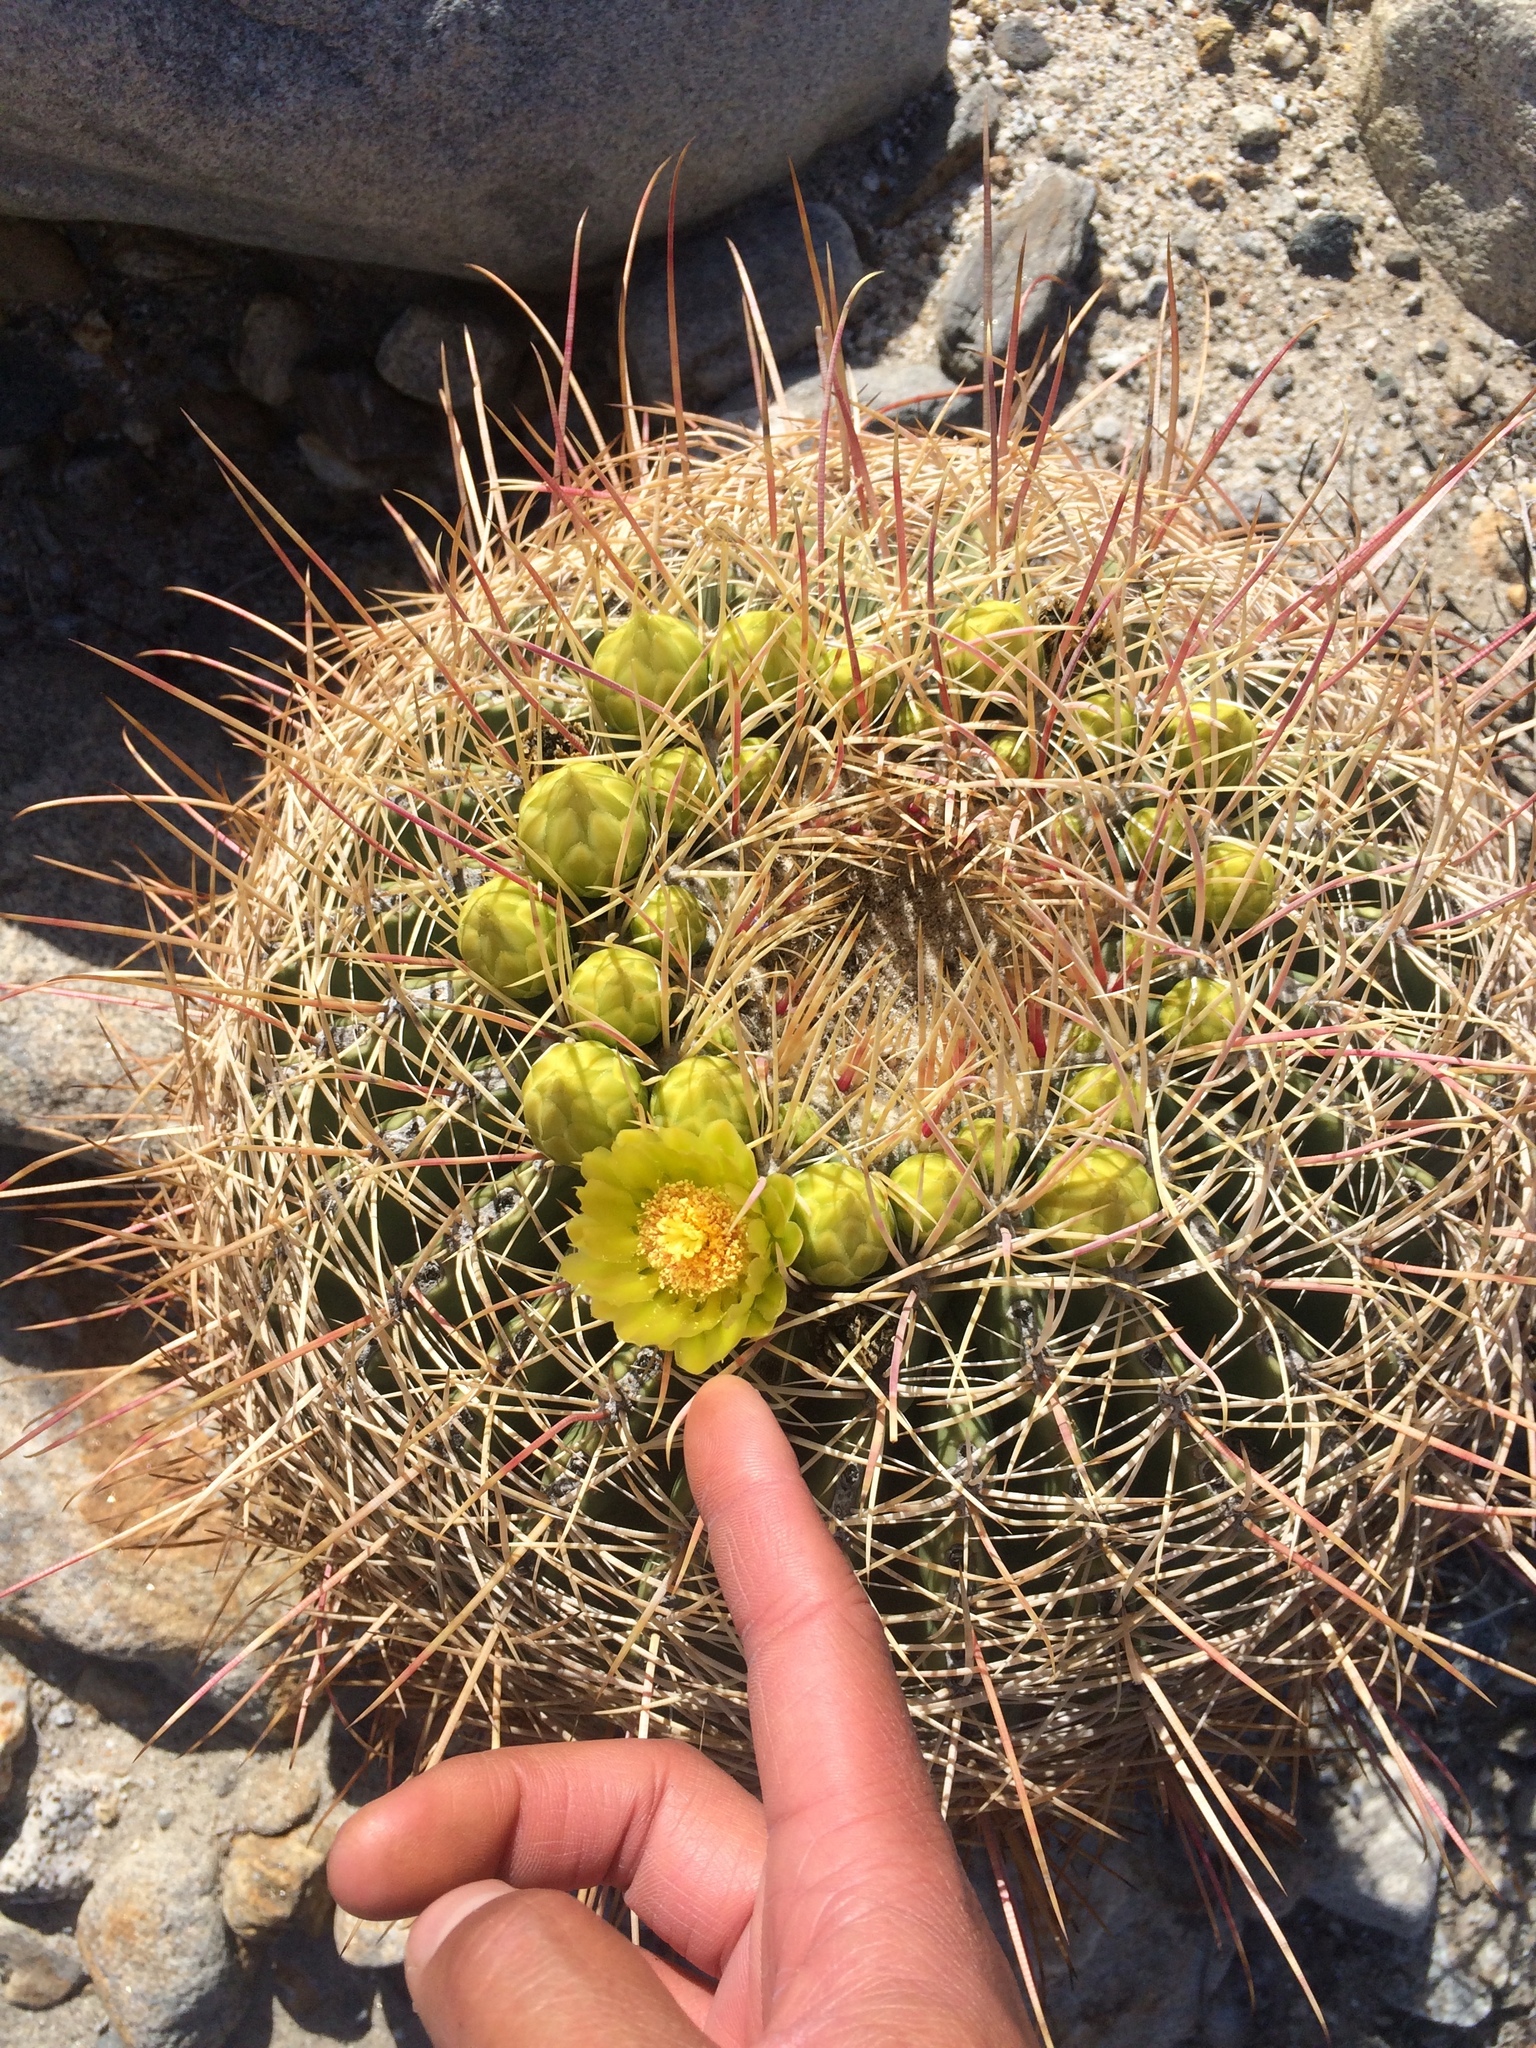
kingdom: Plantae
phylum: Tracheophyta
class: Magnoliopsida
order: Caryophyllales
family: Cactaceae
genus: Ferocactus
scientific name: Ferocactus cylindraceus
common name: California barrel cactus
